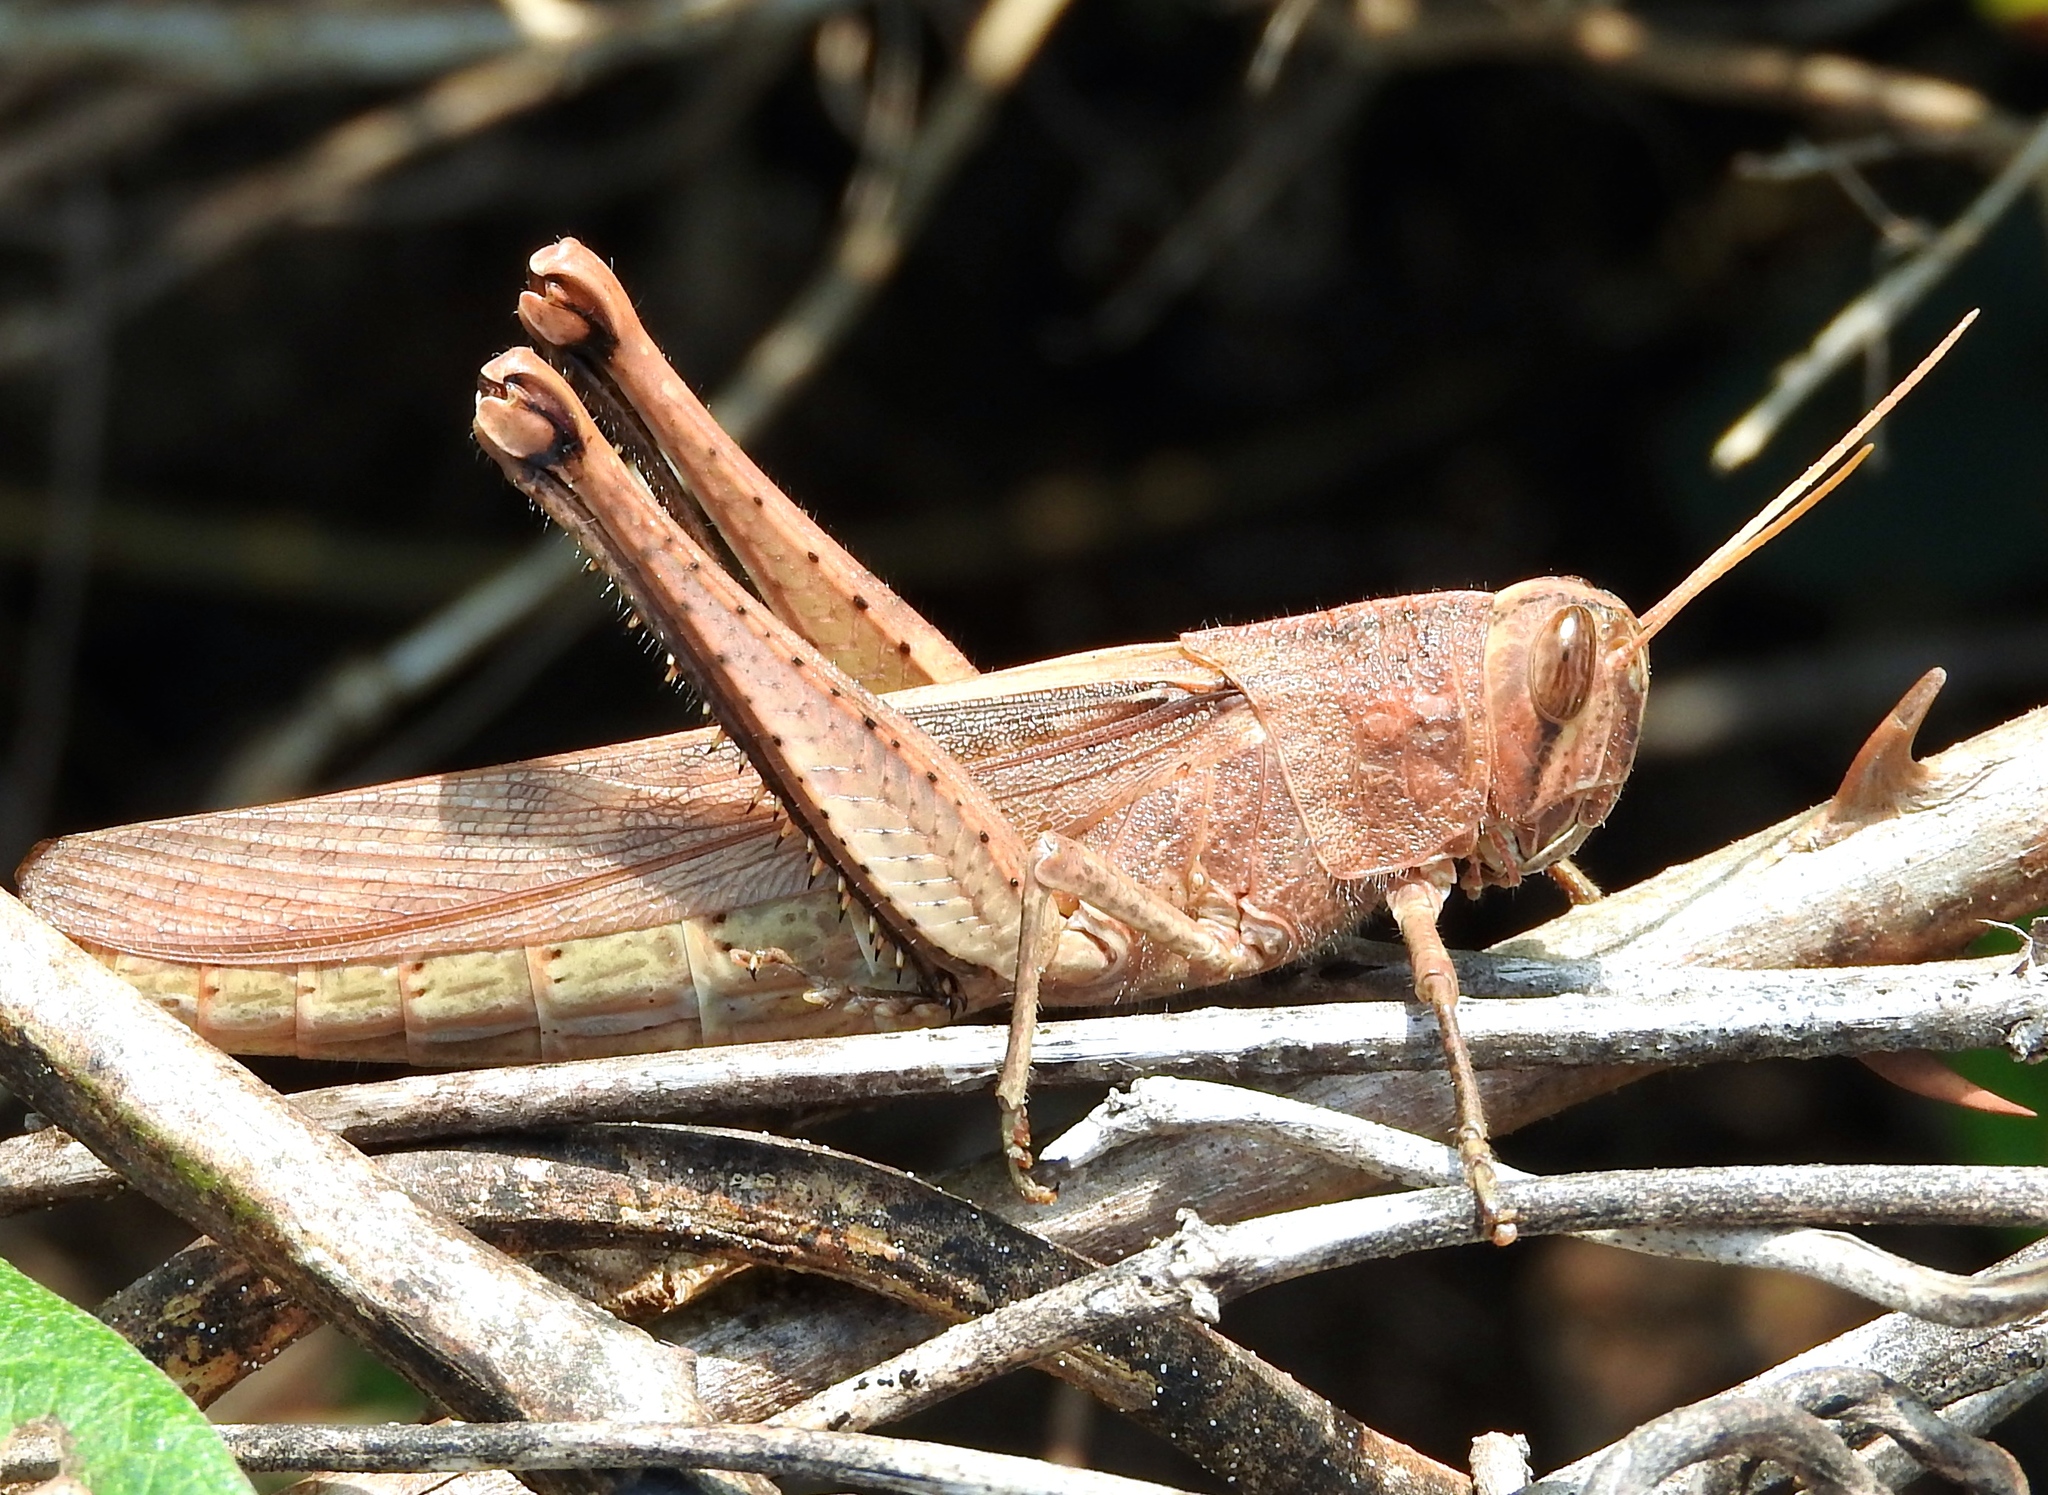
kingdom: Animalia
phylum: Arthropoda
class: Insecta
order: Orthoptera
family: Acrididae
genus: Schistocerca
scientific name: Schistocerca
